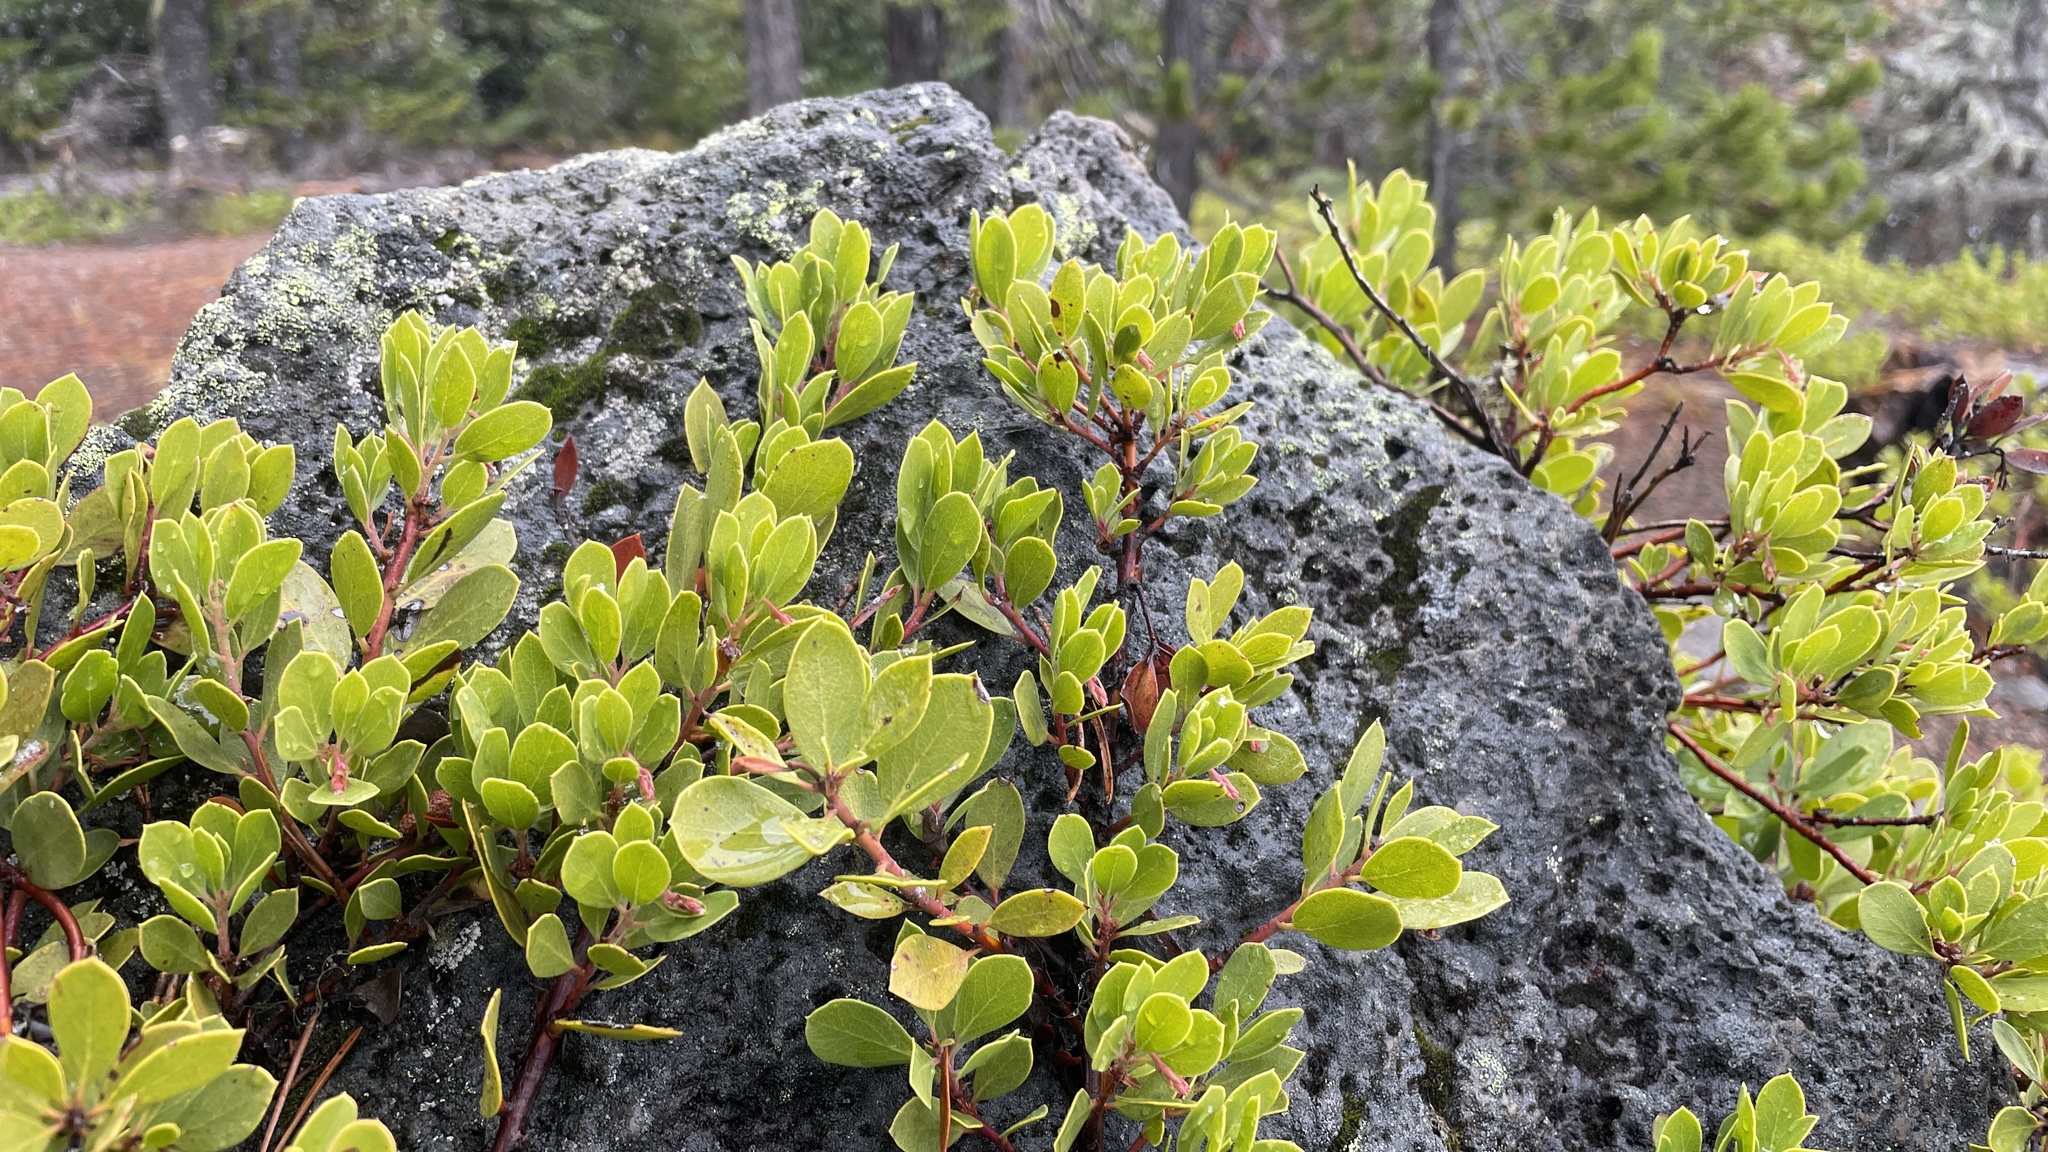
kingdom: Plantae
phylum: Tracheophyta
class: Magnoliopsida
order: Ericales
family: Ericaceae
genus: Arctostaphylos
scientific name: Arctostaphylos nevadensis
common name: Pinemat manzanita
